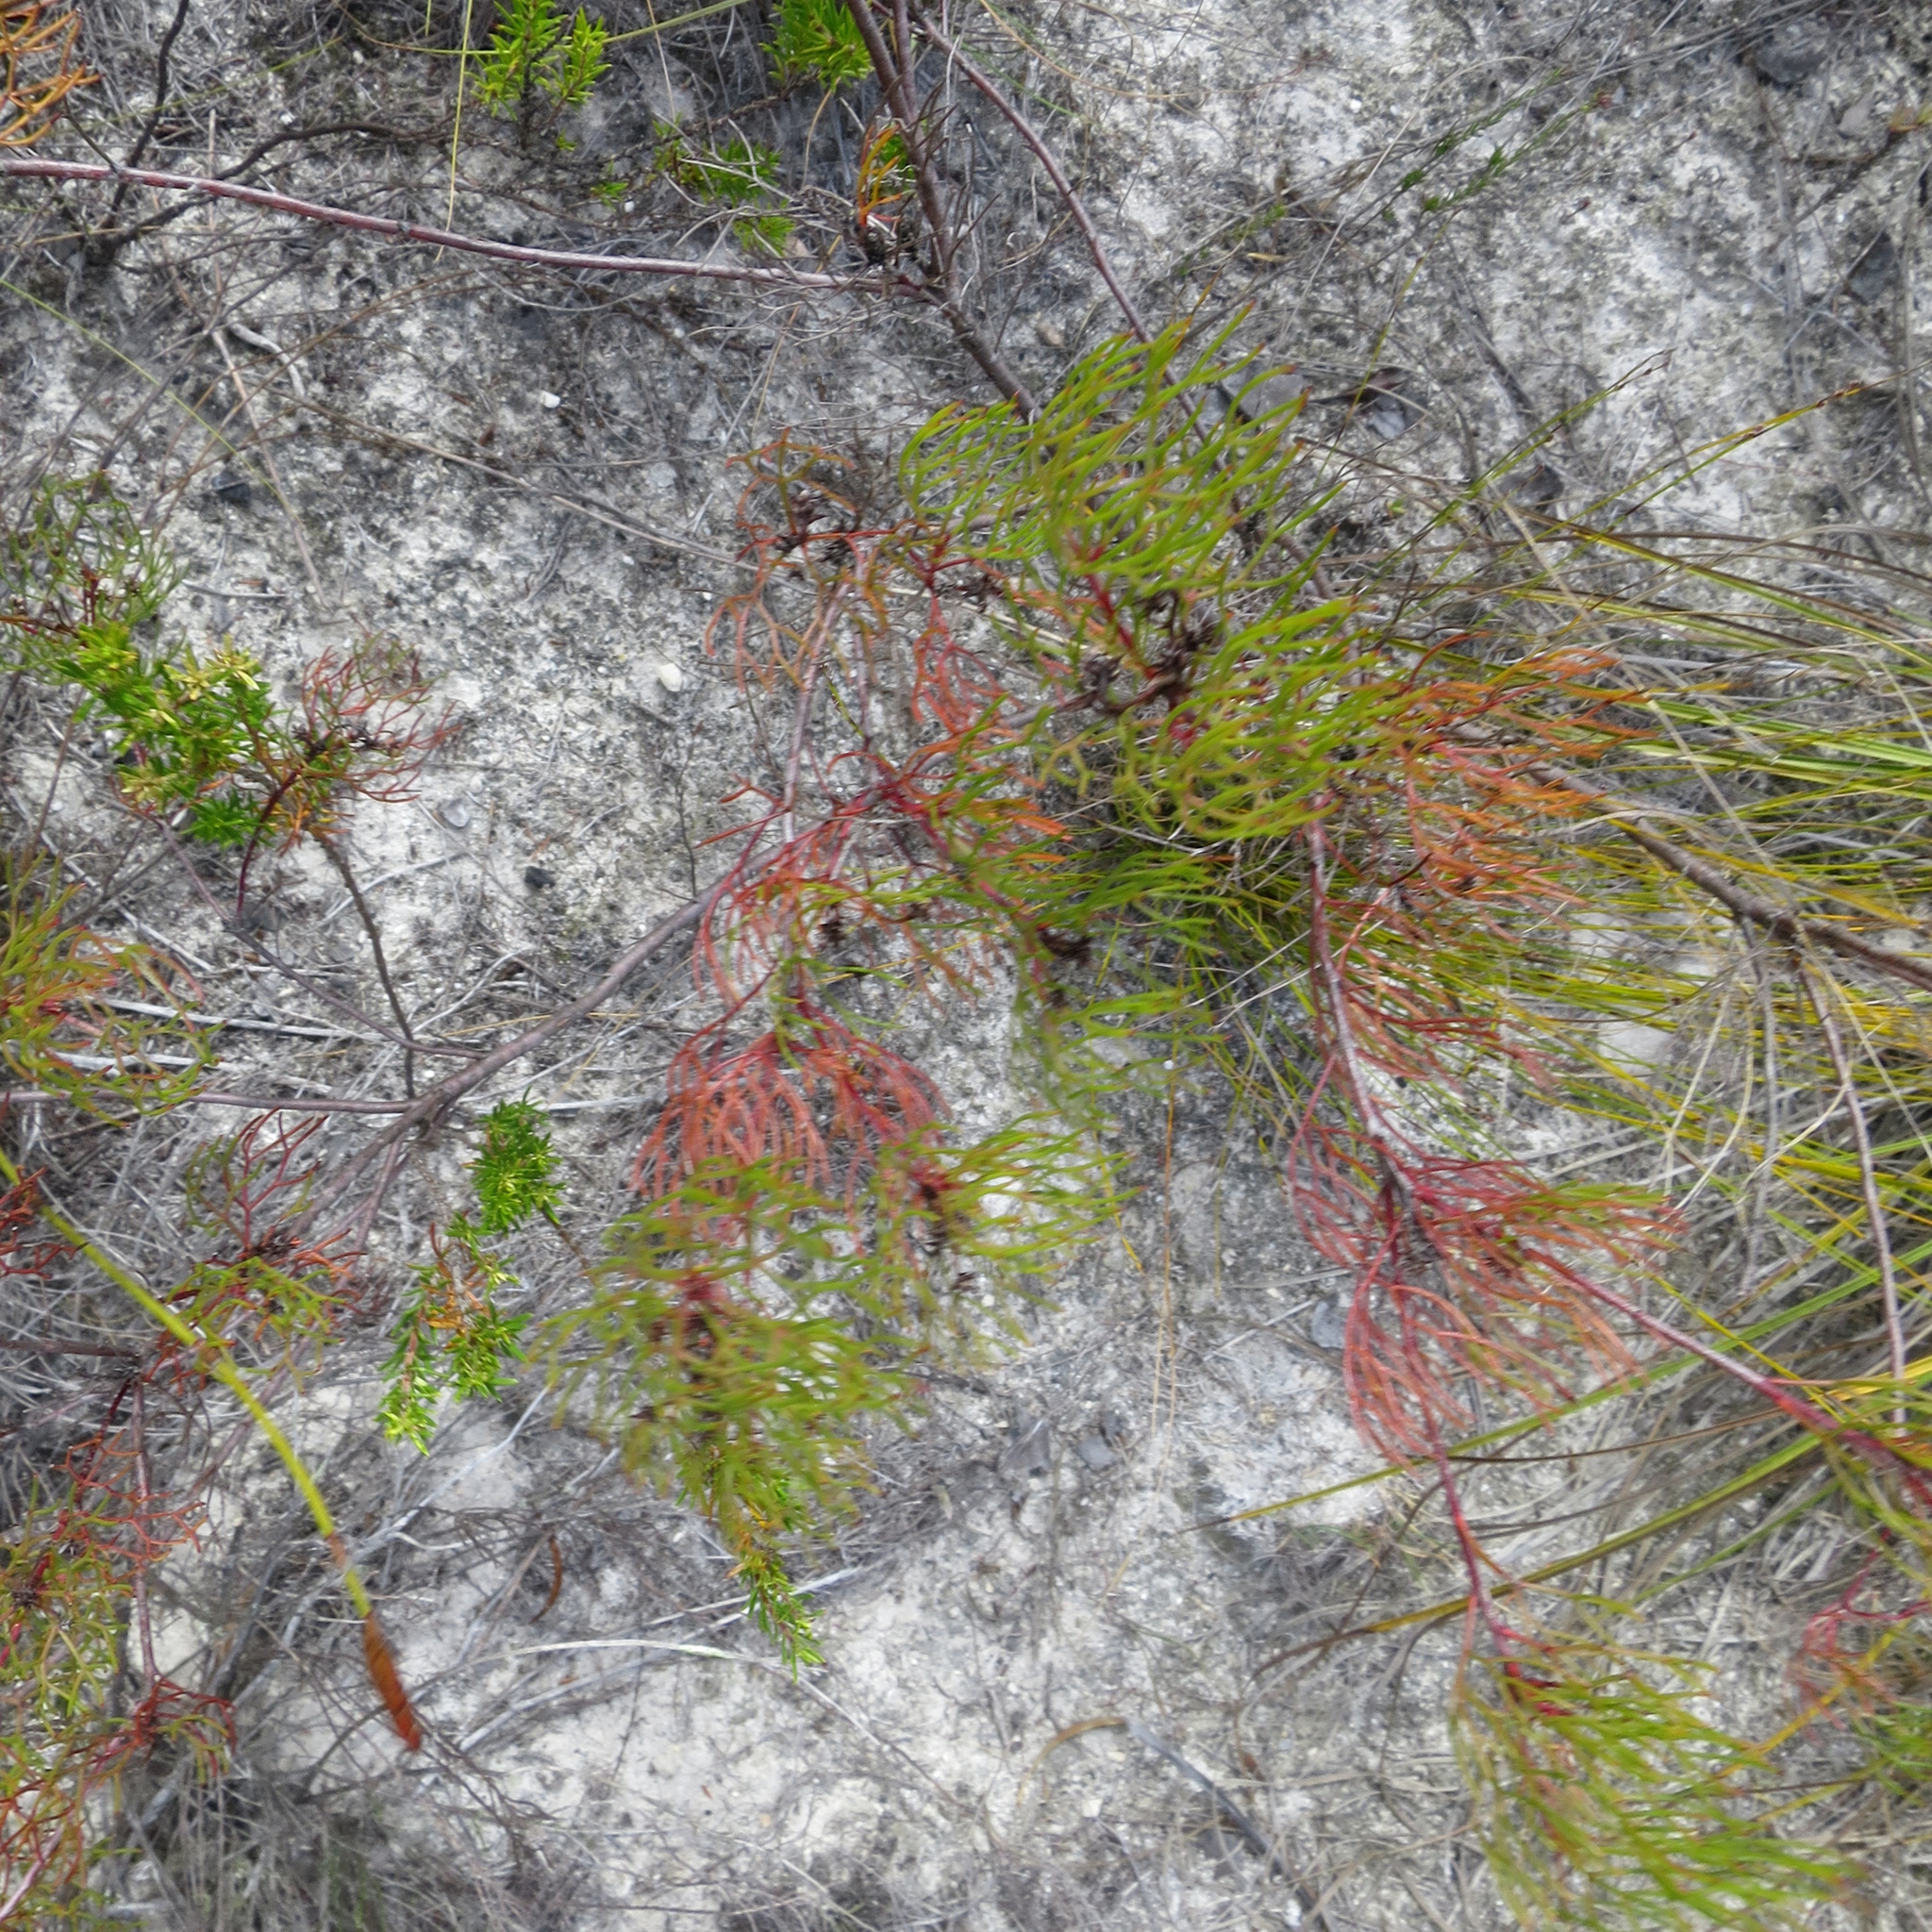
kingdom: Plantae
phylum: Tracheophyta
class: Magnoliopsida
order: Proteales
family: Proteaceae
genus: Serruria
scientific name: Serruria fasciflora
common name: Common pin spiderhead
